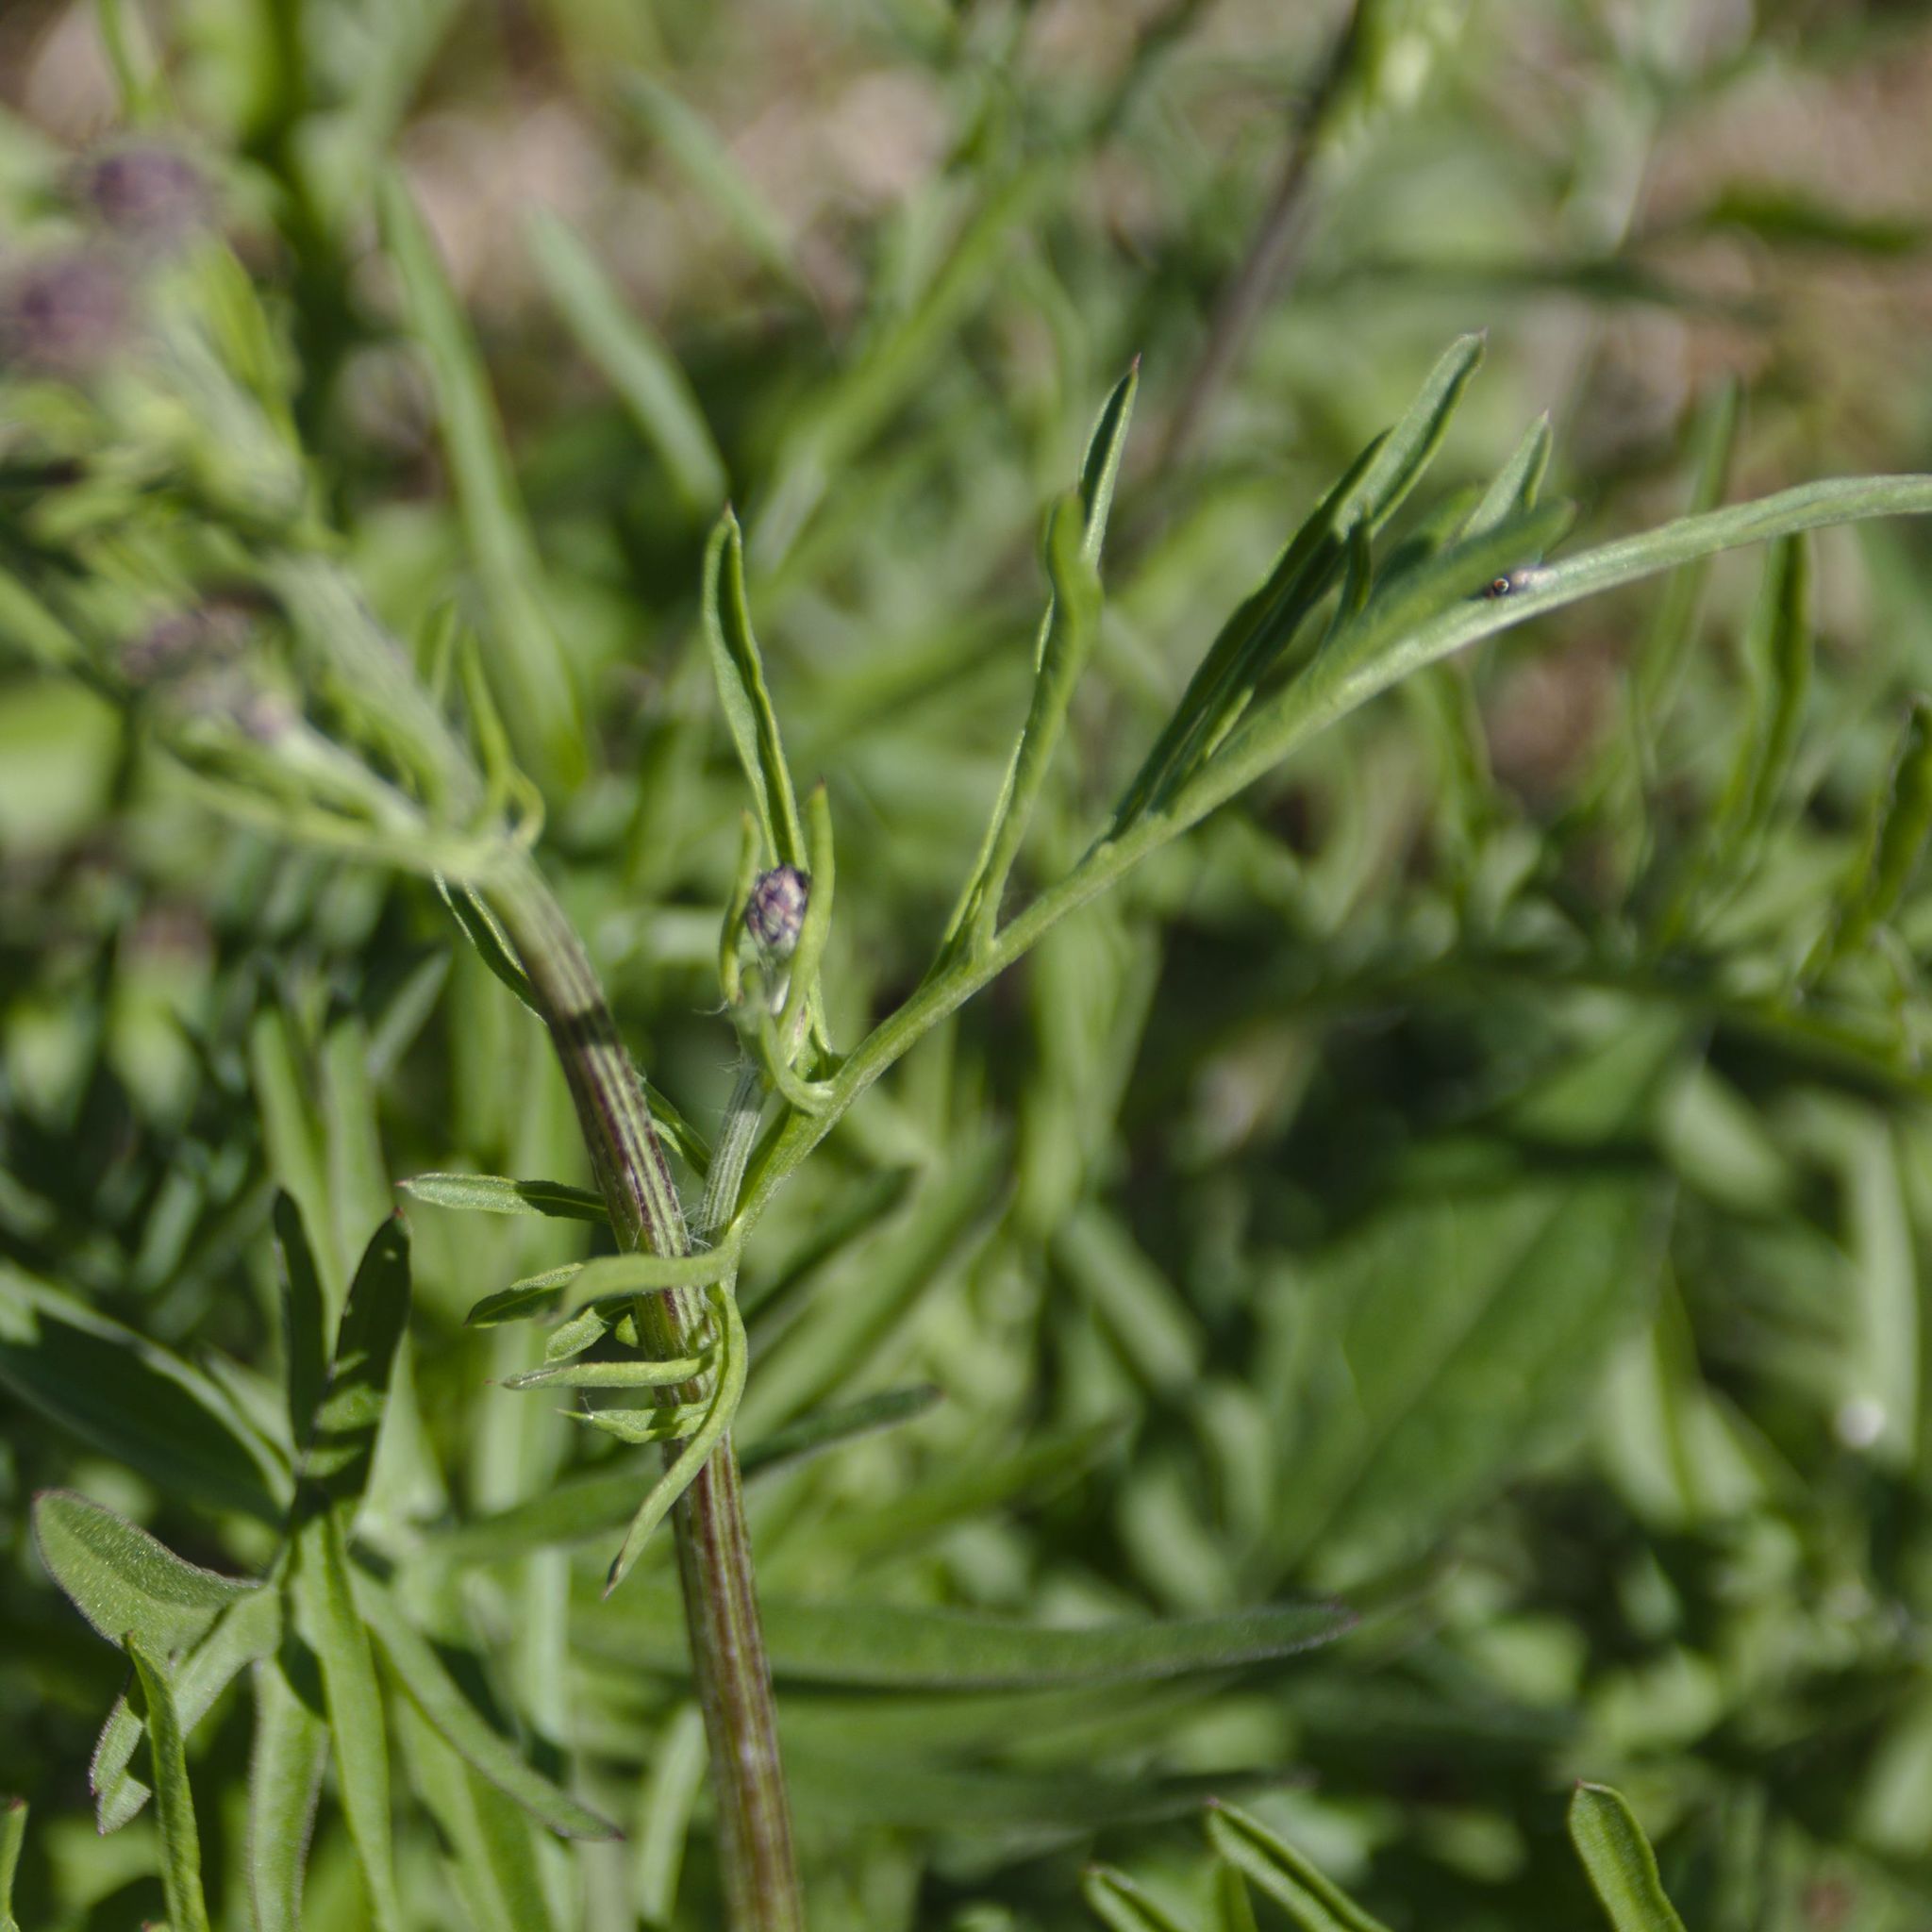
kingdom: Plantae
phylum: Tracheophyta
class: Magnoliopsida
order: Asterales
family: Asteraceae
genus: Centaurea
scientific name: Centaurea scabiosa
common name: Greater knapweed
